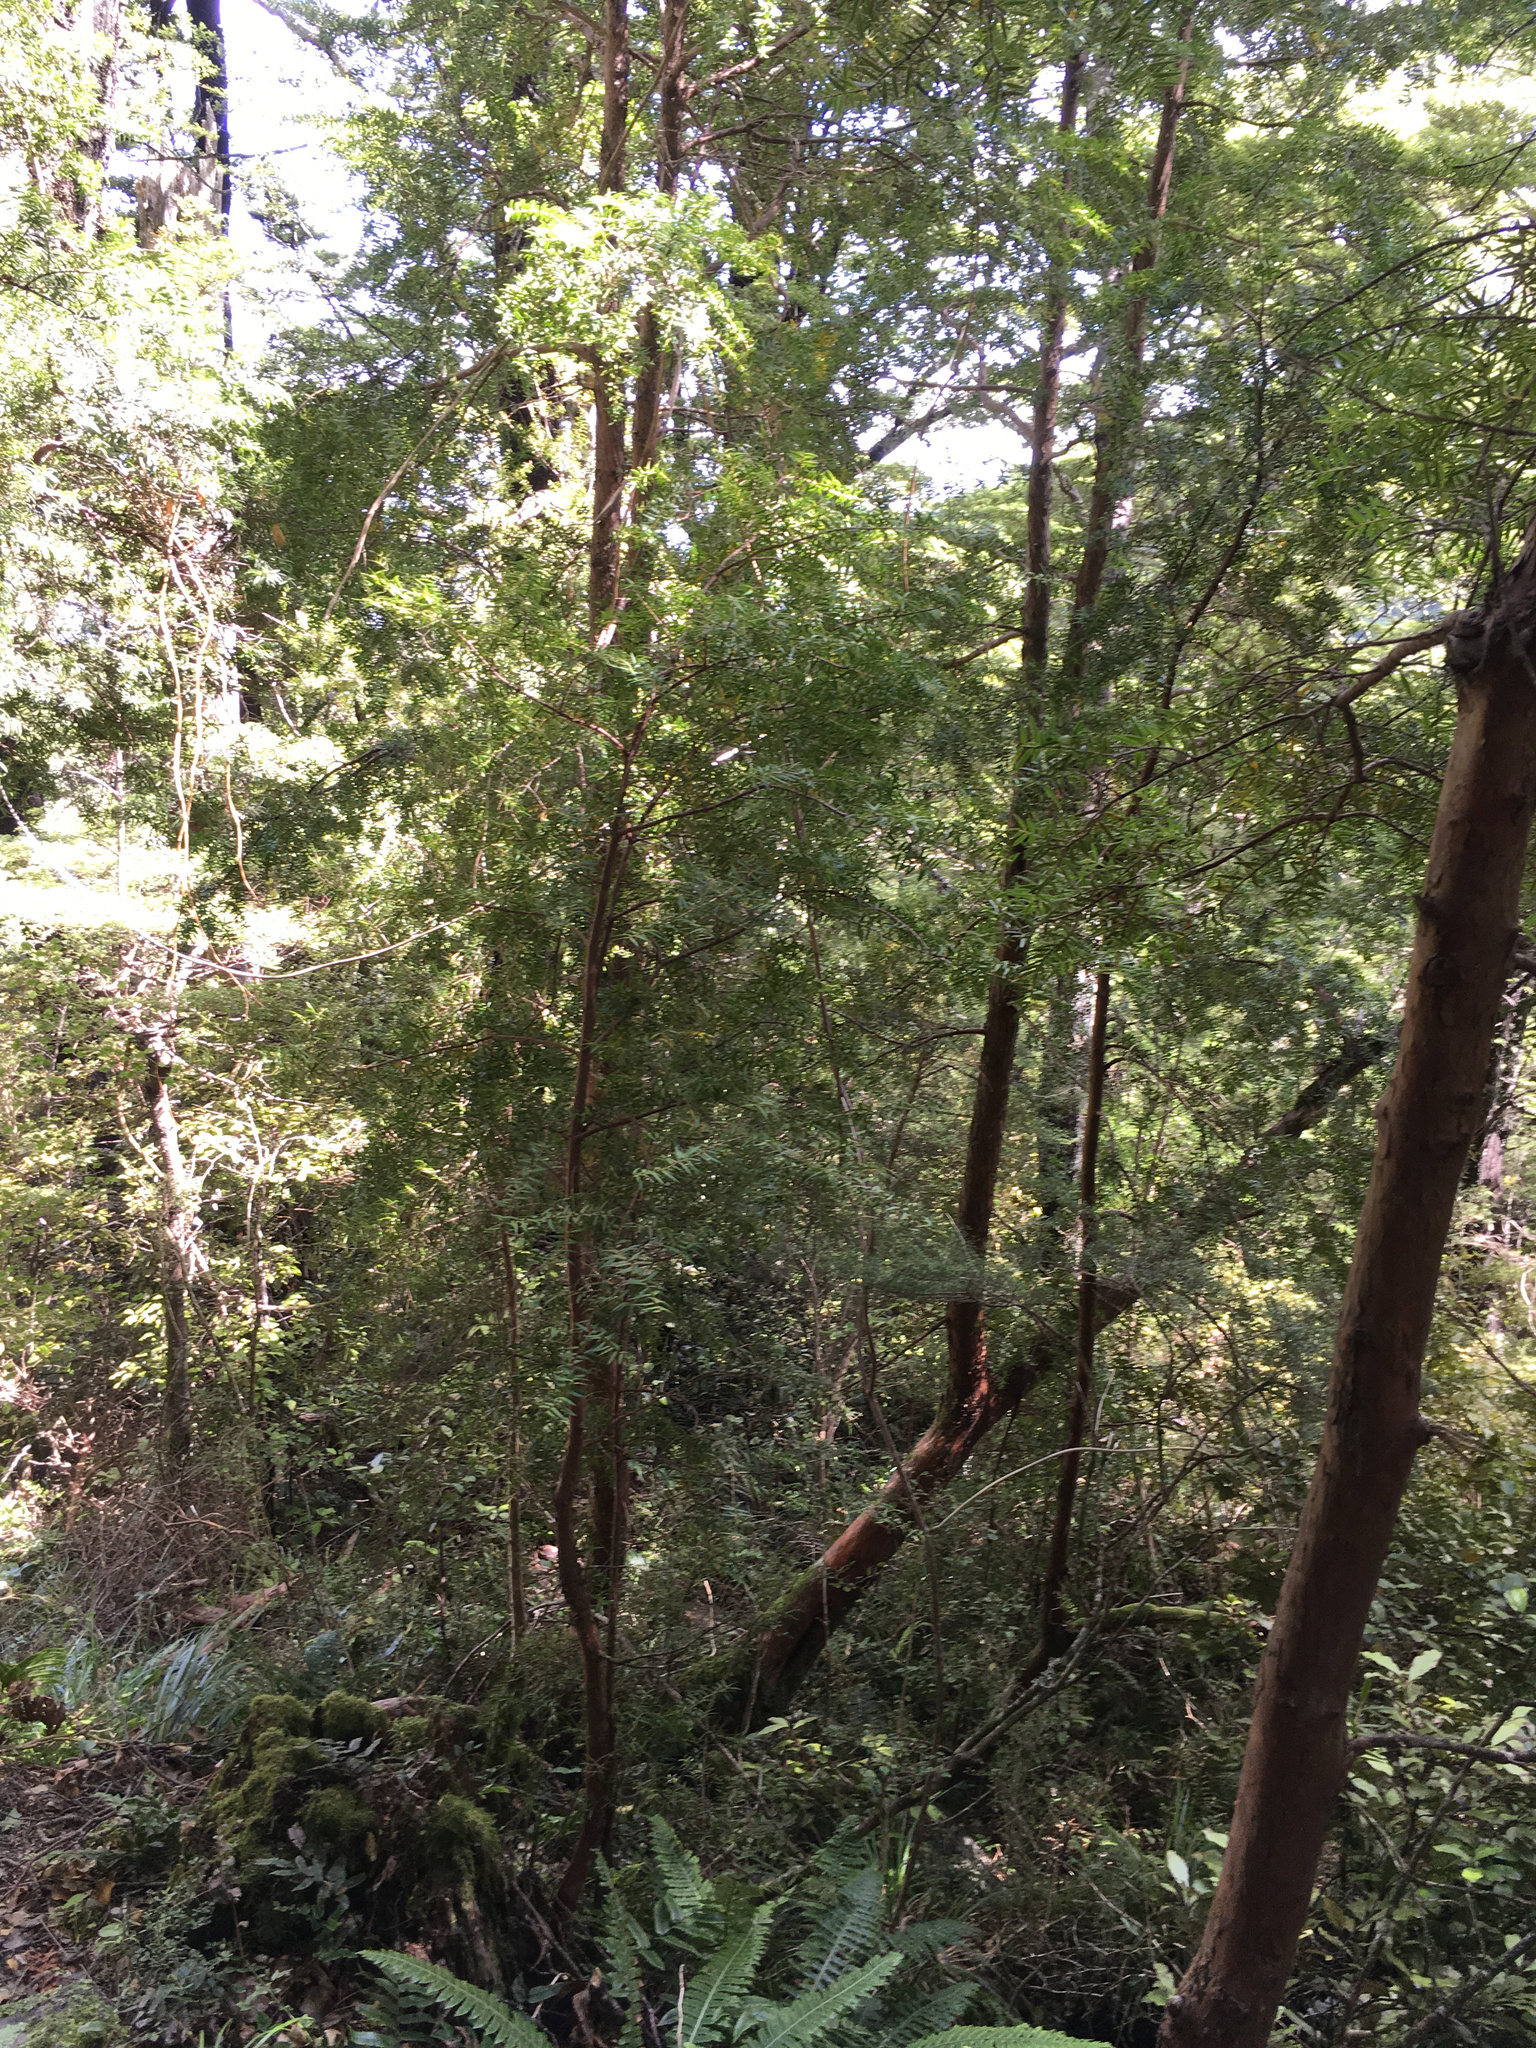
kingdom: Plantae
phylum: Tracheophyta
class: Pinopsida
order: Pinales
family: Podocarpaceae
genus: Podocarpus
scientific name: Podocarpus totara
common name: Totara
